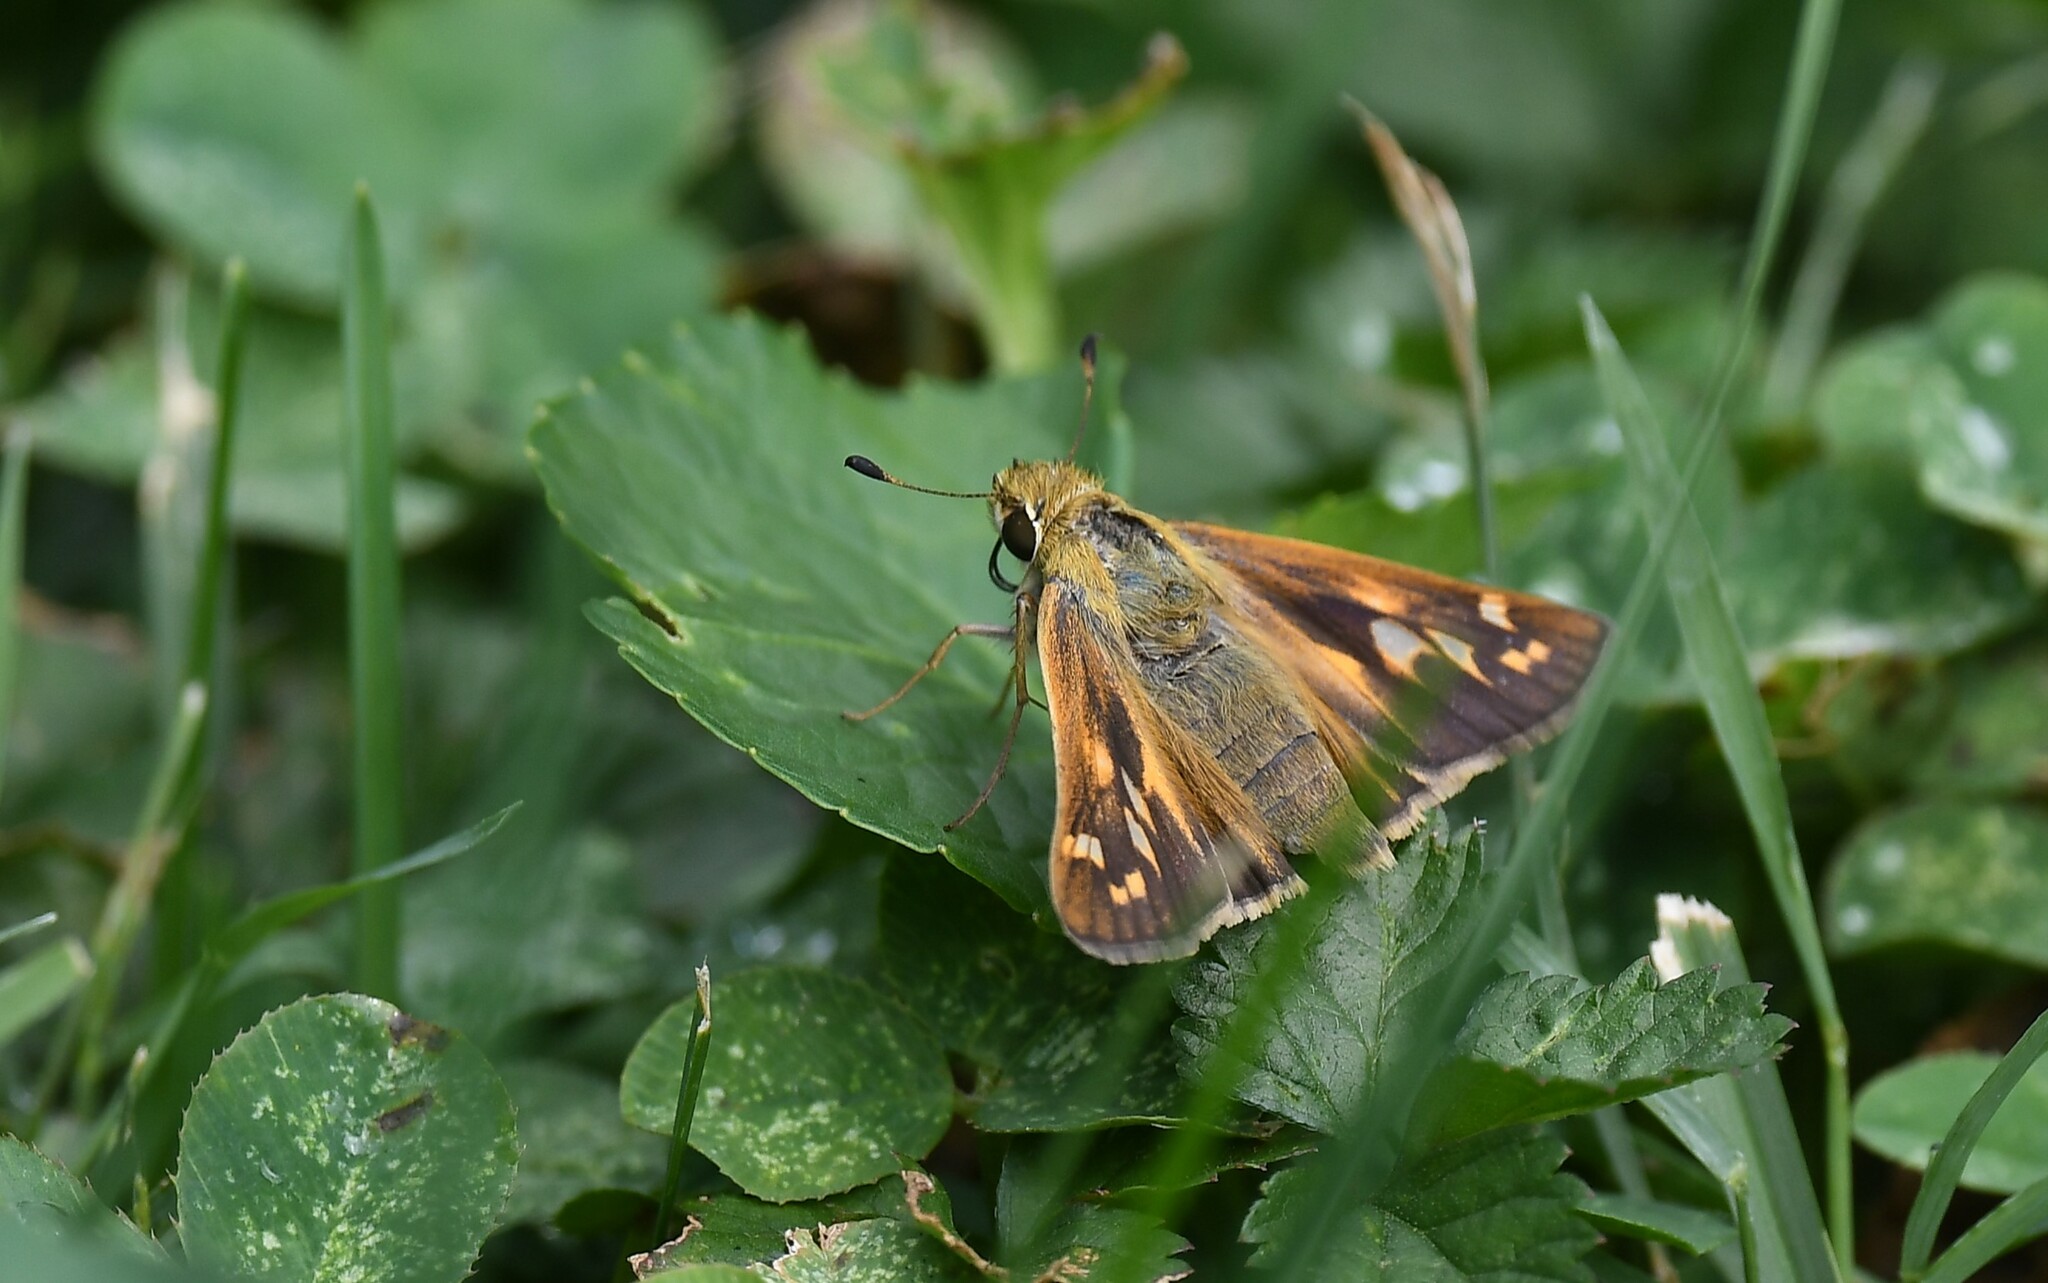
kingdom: Animalia
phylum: Arthropoda
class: Insecta
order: Lepidoptera
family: Hesperiidae
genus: Atalopedes
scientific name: Atalopedes
